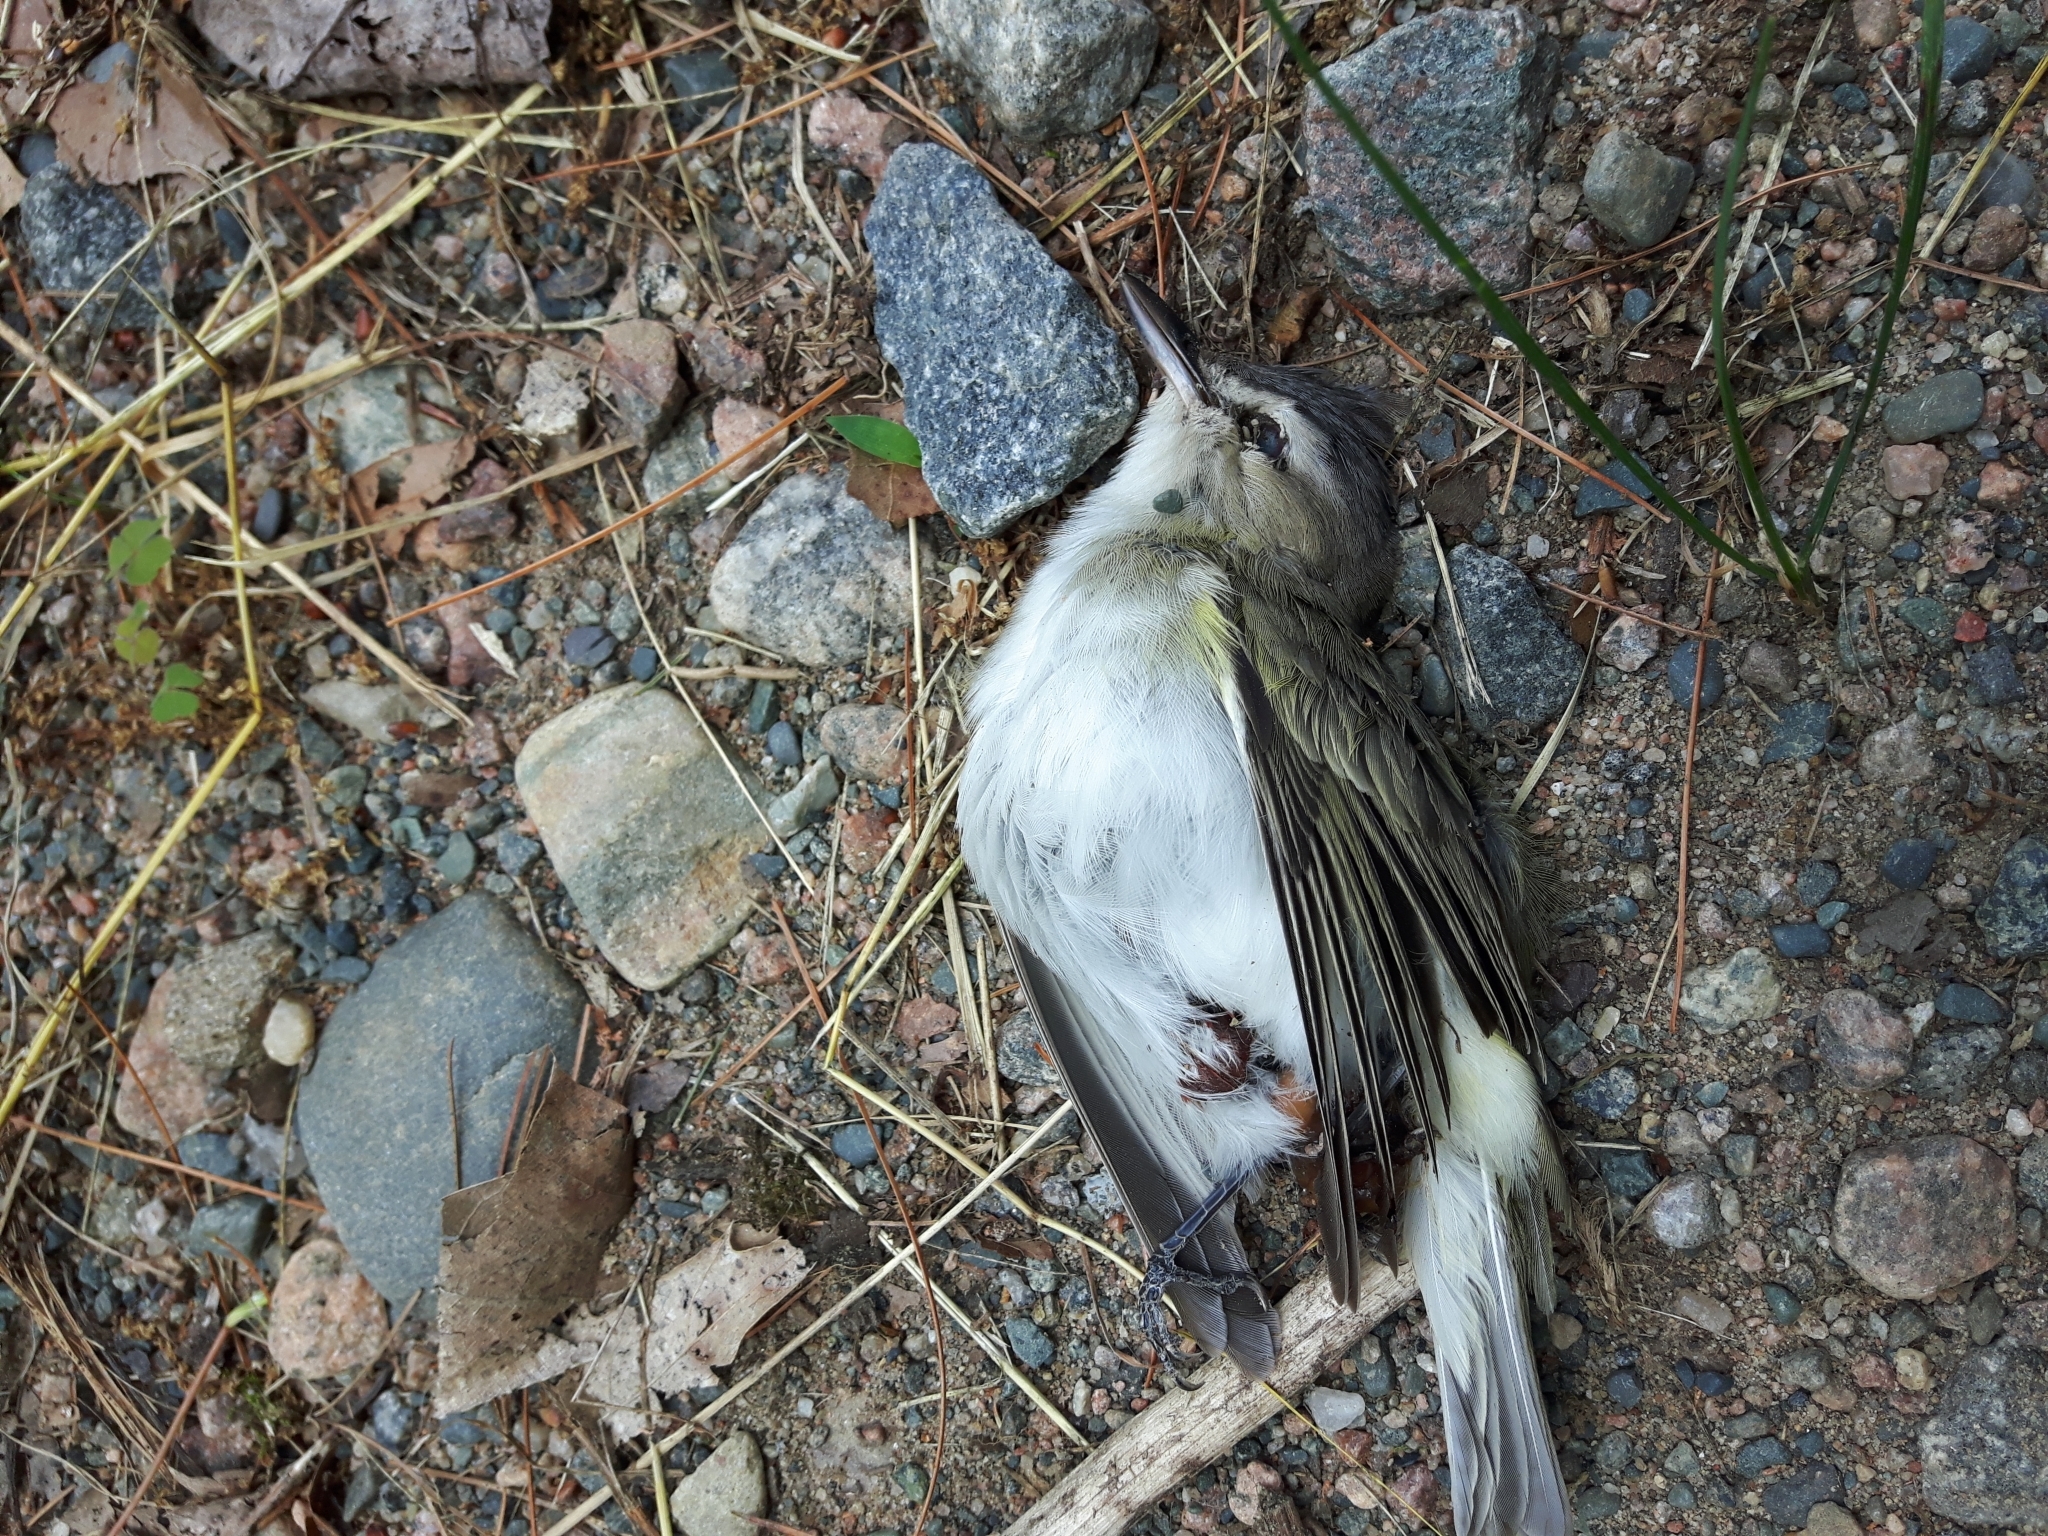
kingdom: Animalia
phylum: Chordata
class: Aves
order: Passeriformes
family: Vireonidae
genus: Vireo
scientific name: Vireo olivaceus
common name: Red-eyed vireo
